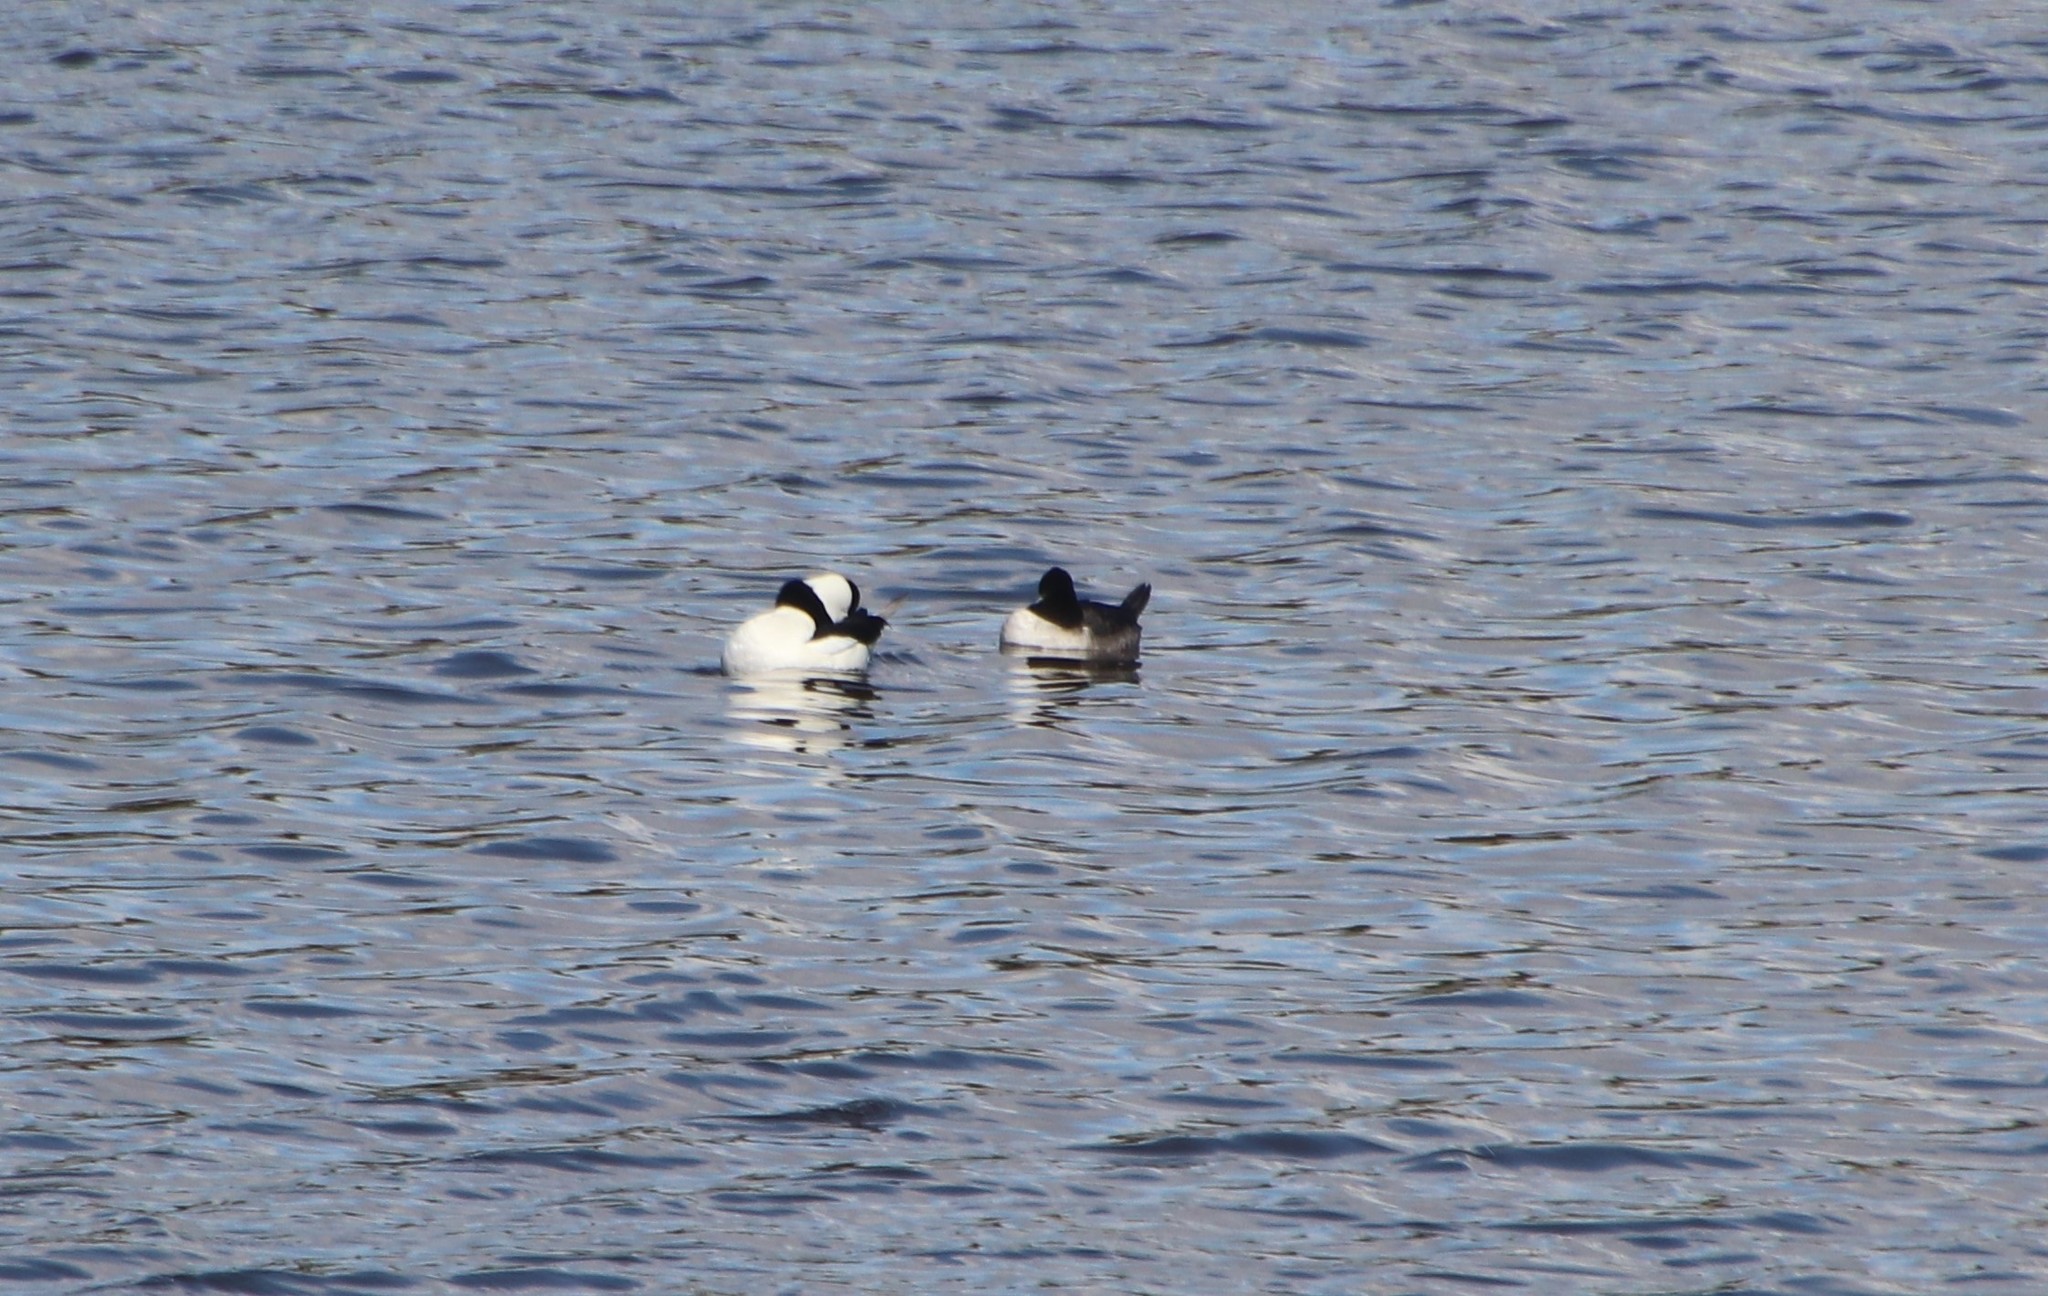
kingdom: Animalia
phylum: Chordata
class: Aves
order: Anseriformes
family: Anatidae
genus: Bucephala
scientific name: Bucephala albeola
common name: Bufflehead
